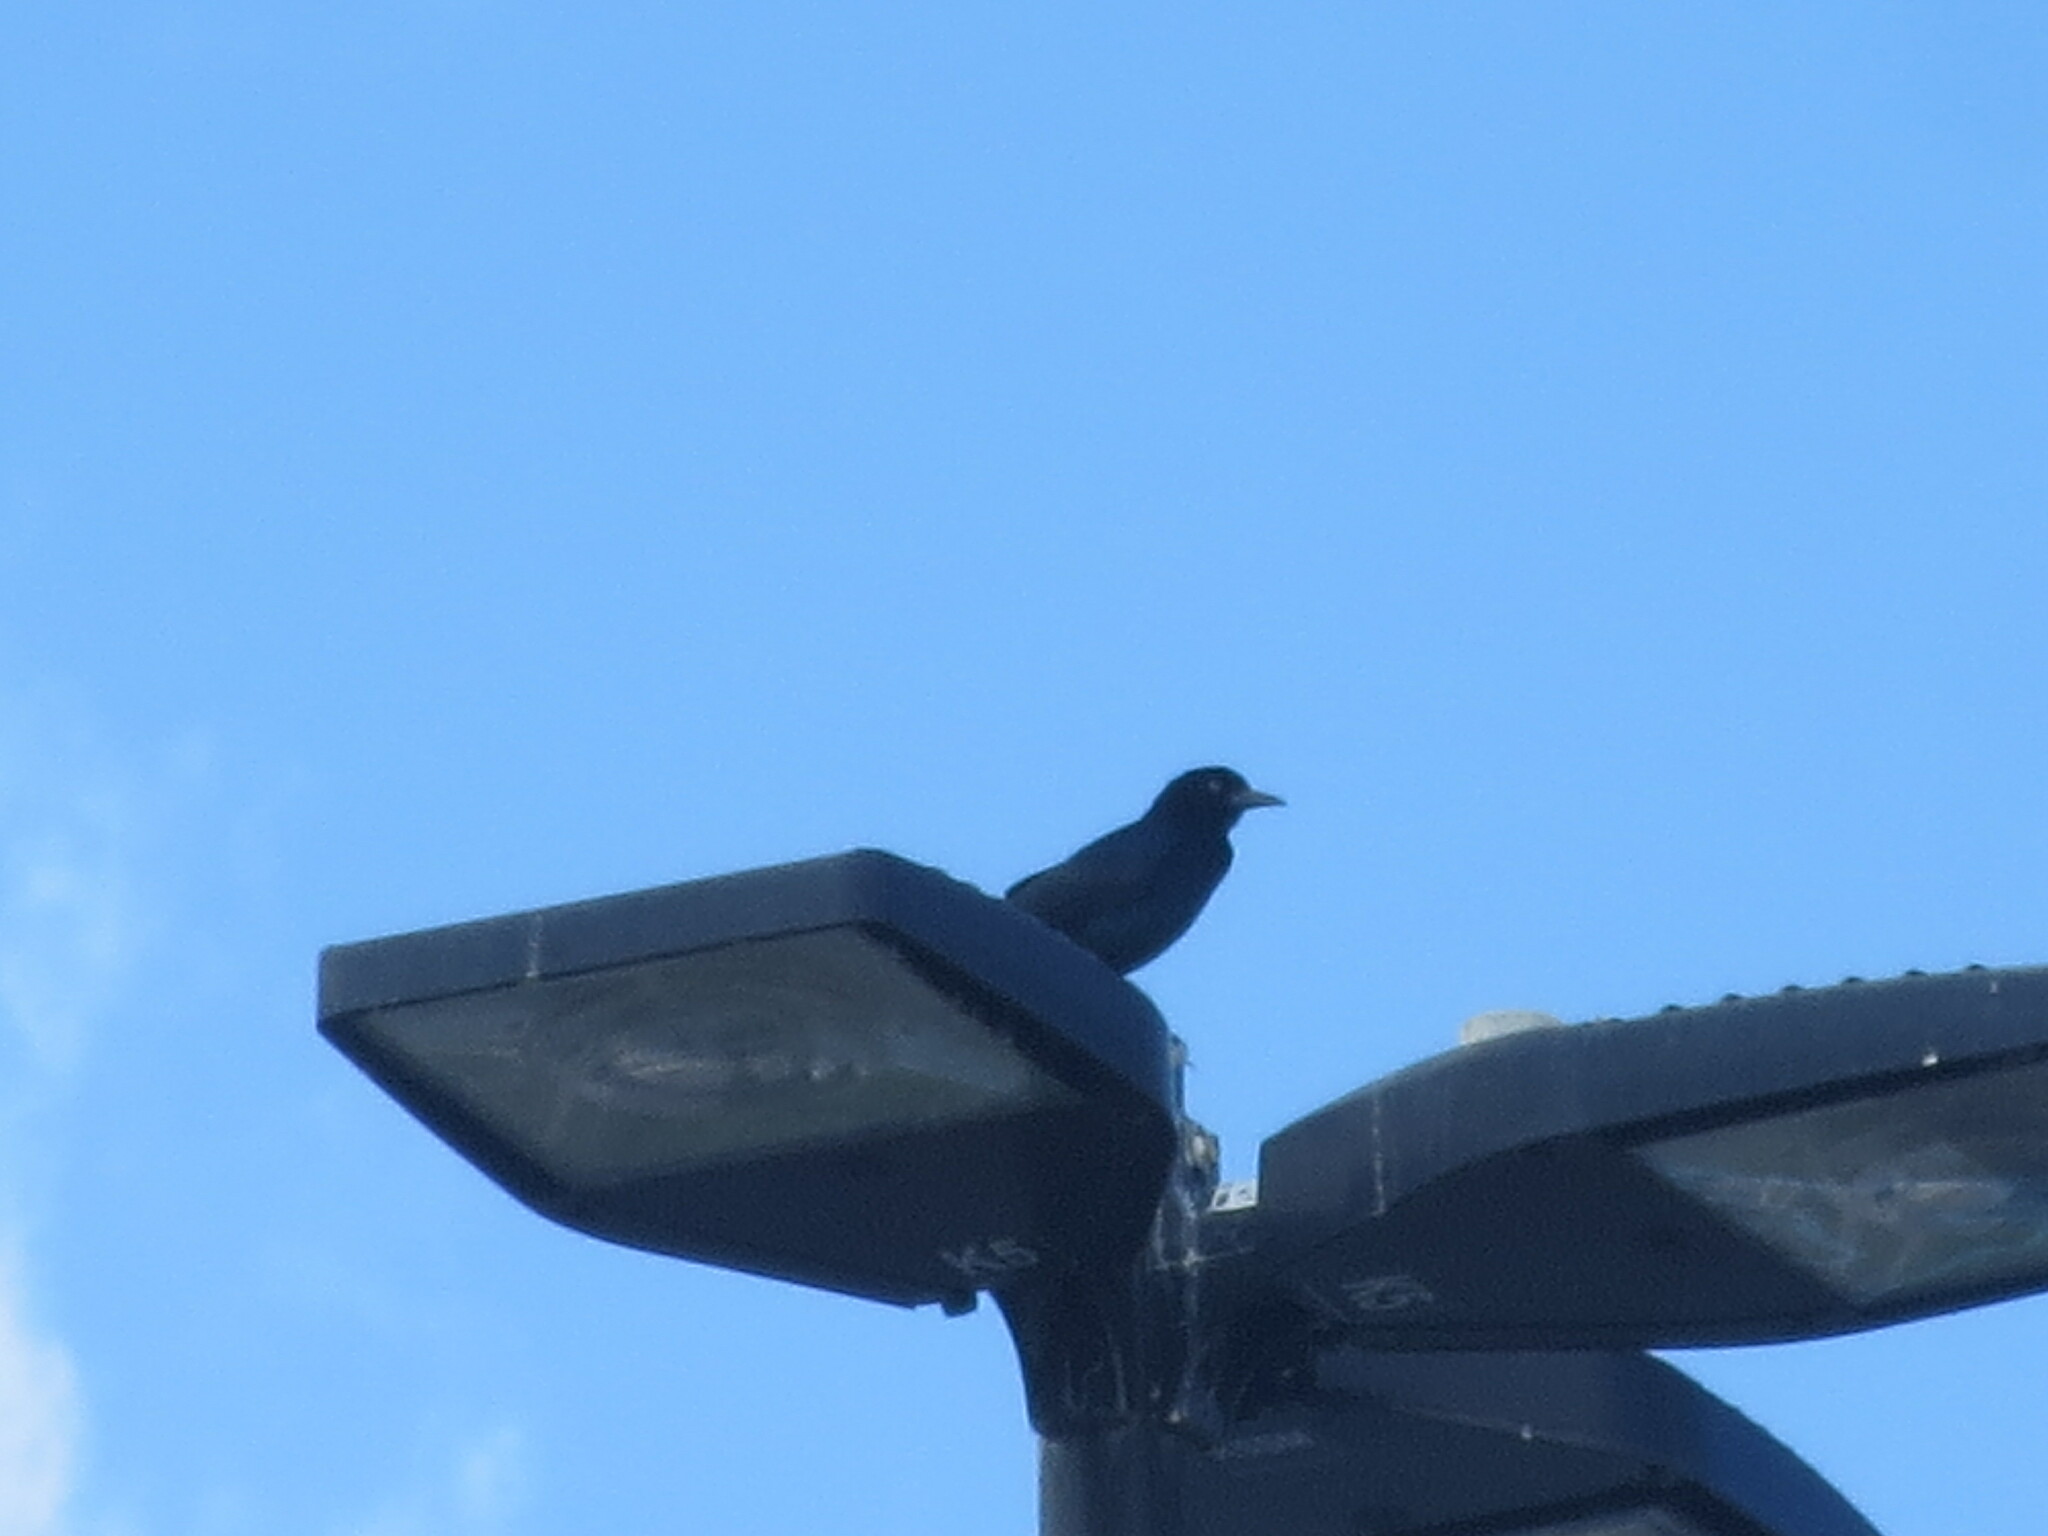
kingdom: Animalia
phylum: Chordata
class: Aves
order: Passeriformes
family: Icteridae
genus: Quiscalus
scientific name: Quiscalus major
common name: Boat-tailed grackle
